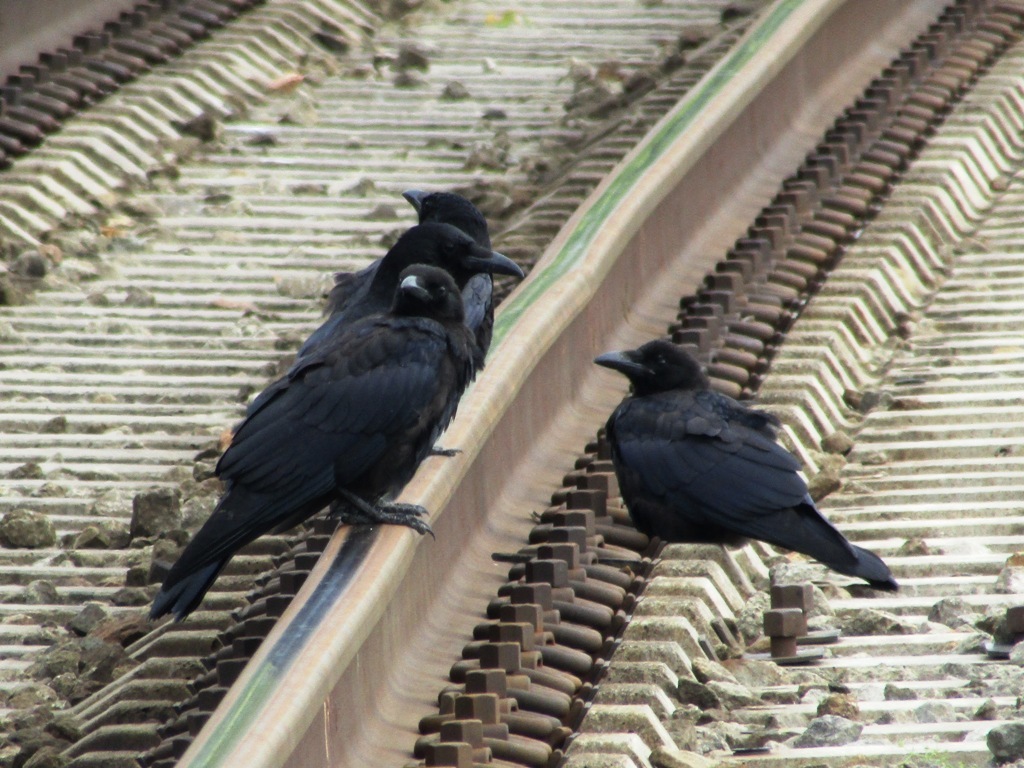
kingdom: Animalia
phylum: Chordata
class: Aves
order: Passeriformes
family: Corvidae
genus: Corvus
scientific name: Corvus corone
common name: Carrion crow
